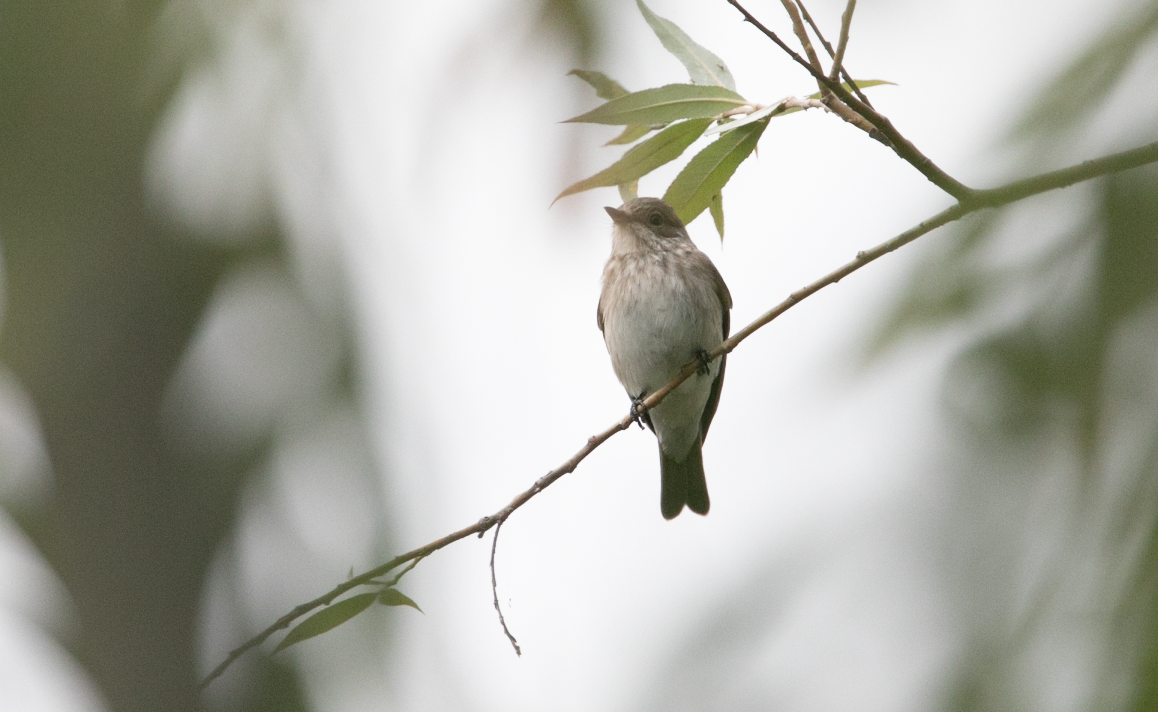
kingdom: Animalia
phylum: Chordata
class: Aves
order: Passeriformes
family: Muscicapidae
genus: Muscicapa
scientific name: Muscicapa striata
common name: Spotted flycatcher
